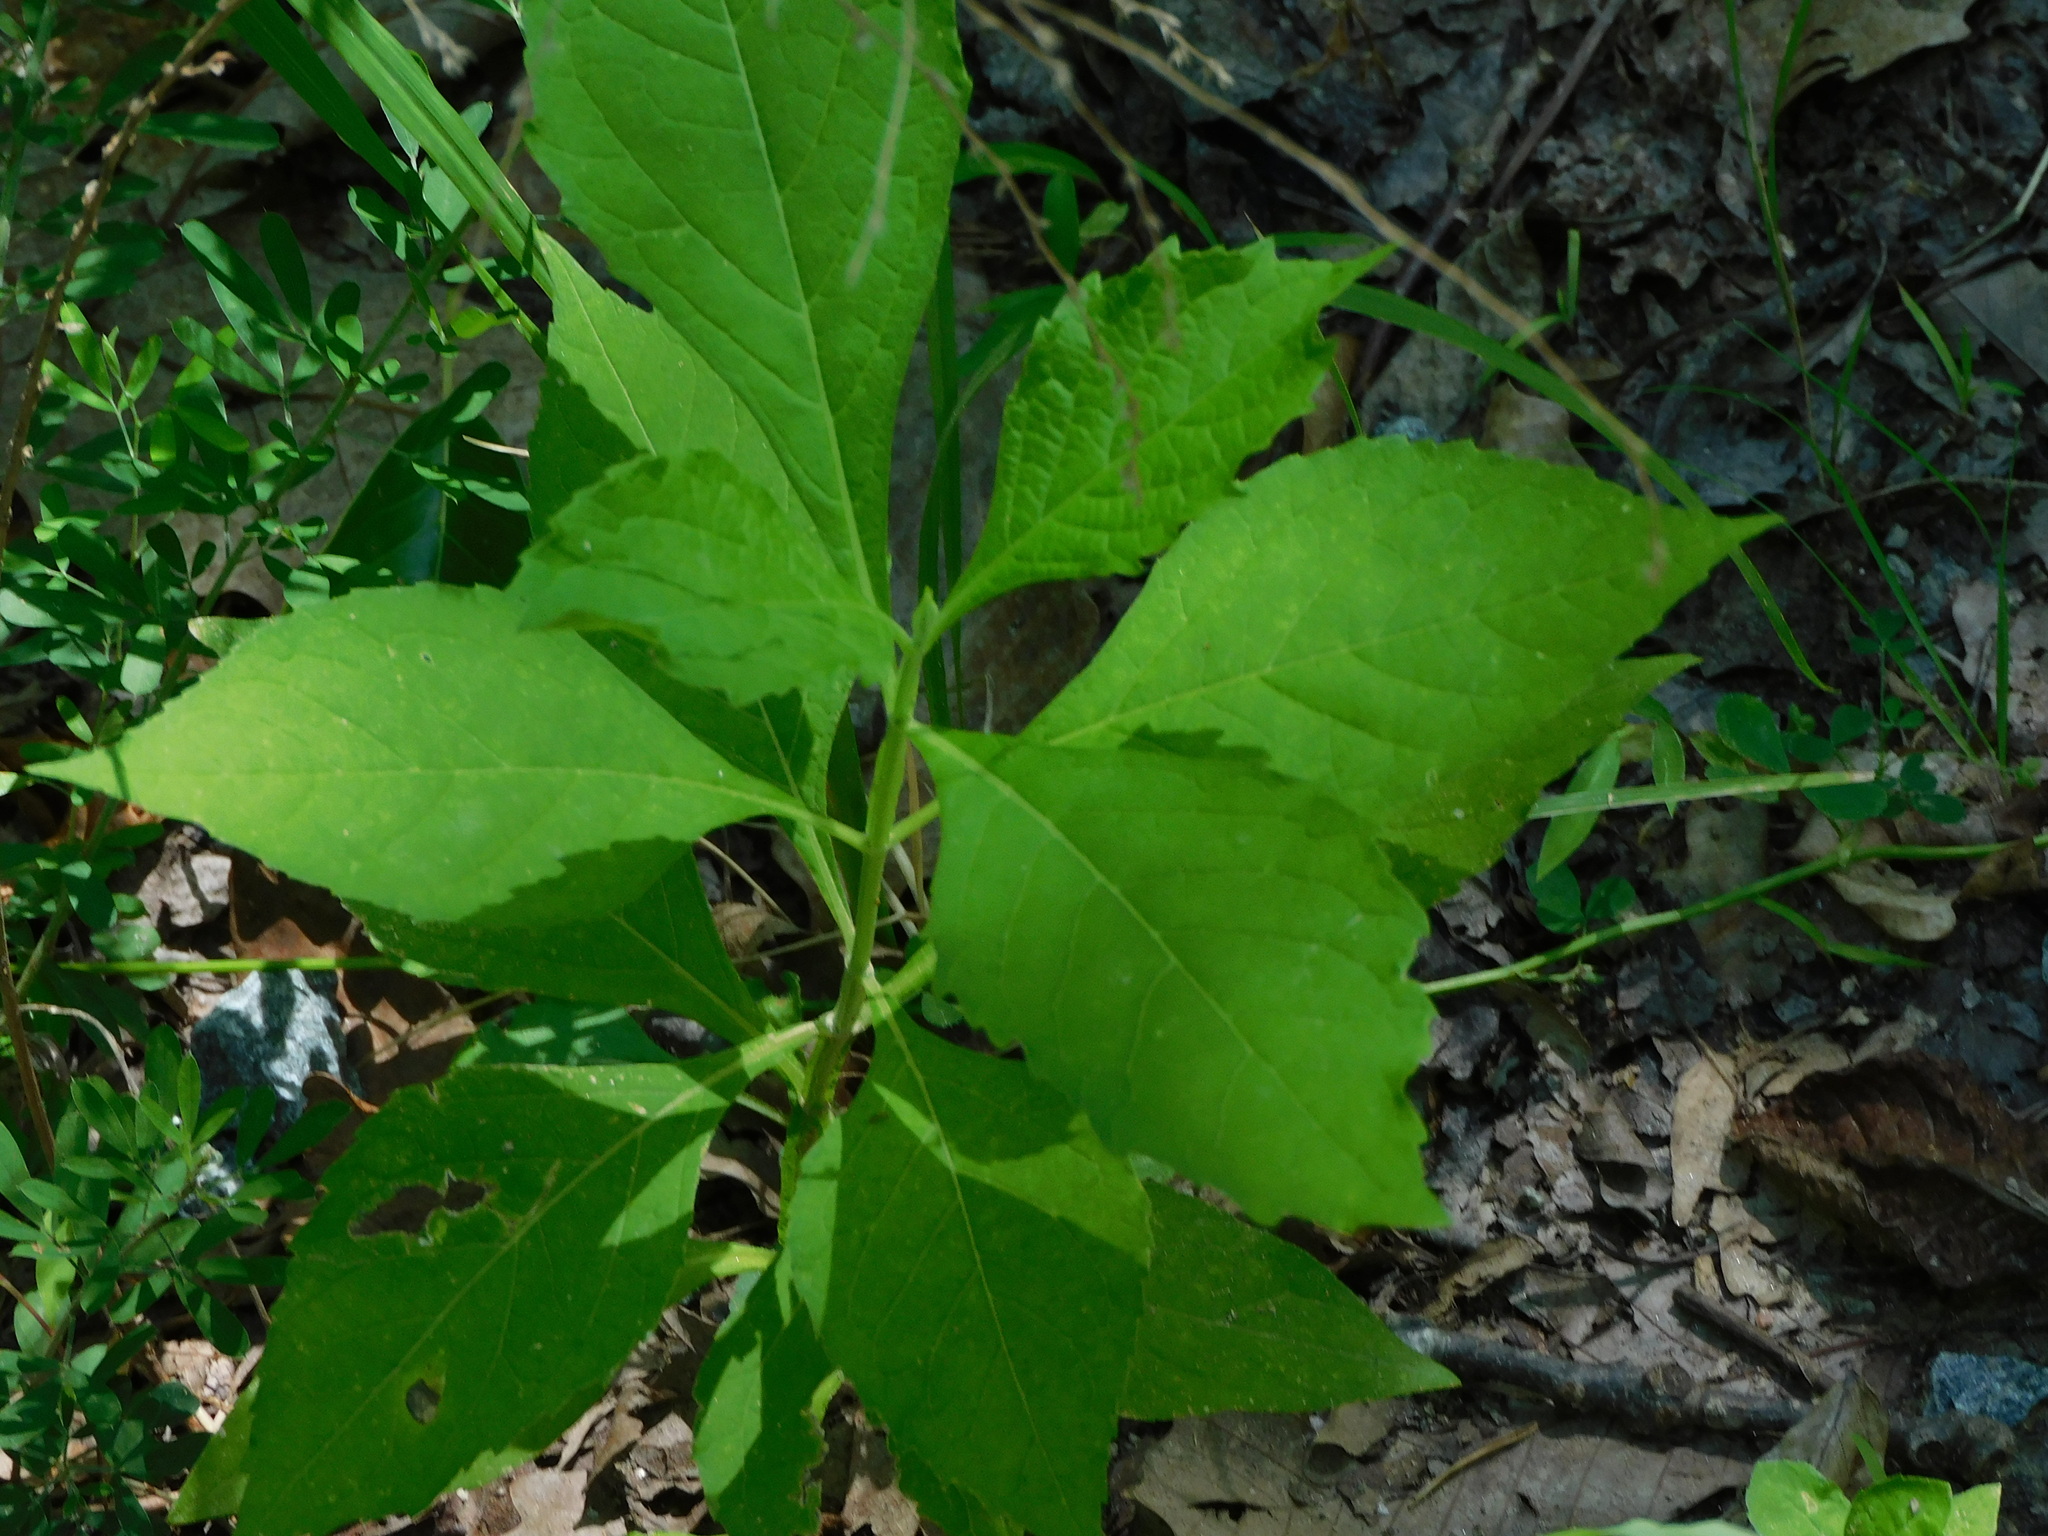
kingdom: Plantae
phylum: Tracheophyta
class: Magnoliopsida
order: Asterales
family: Asteraceae
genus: Verbesina
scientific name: Verbesina occidentalis
